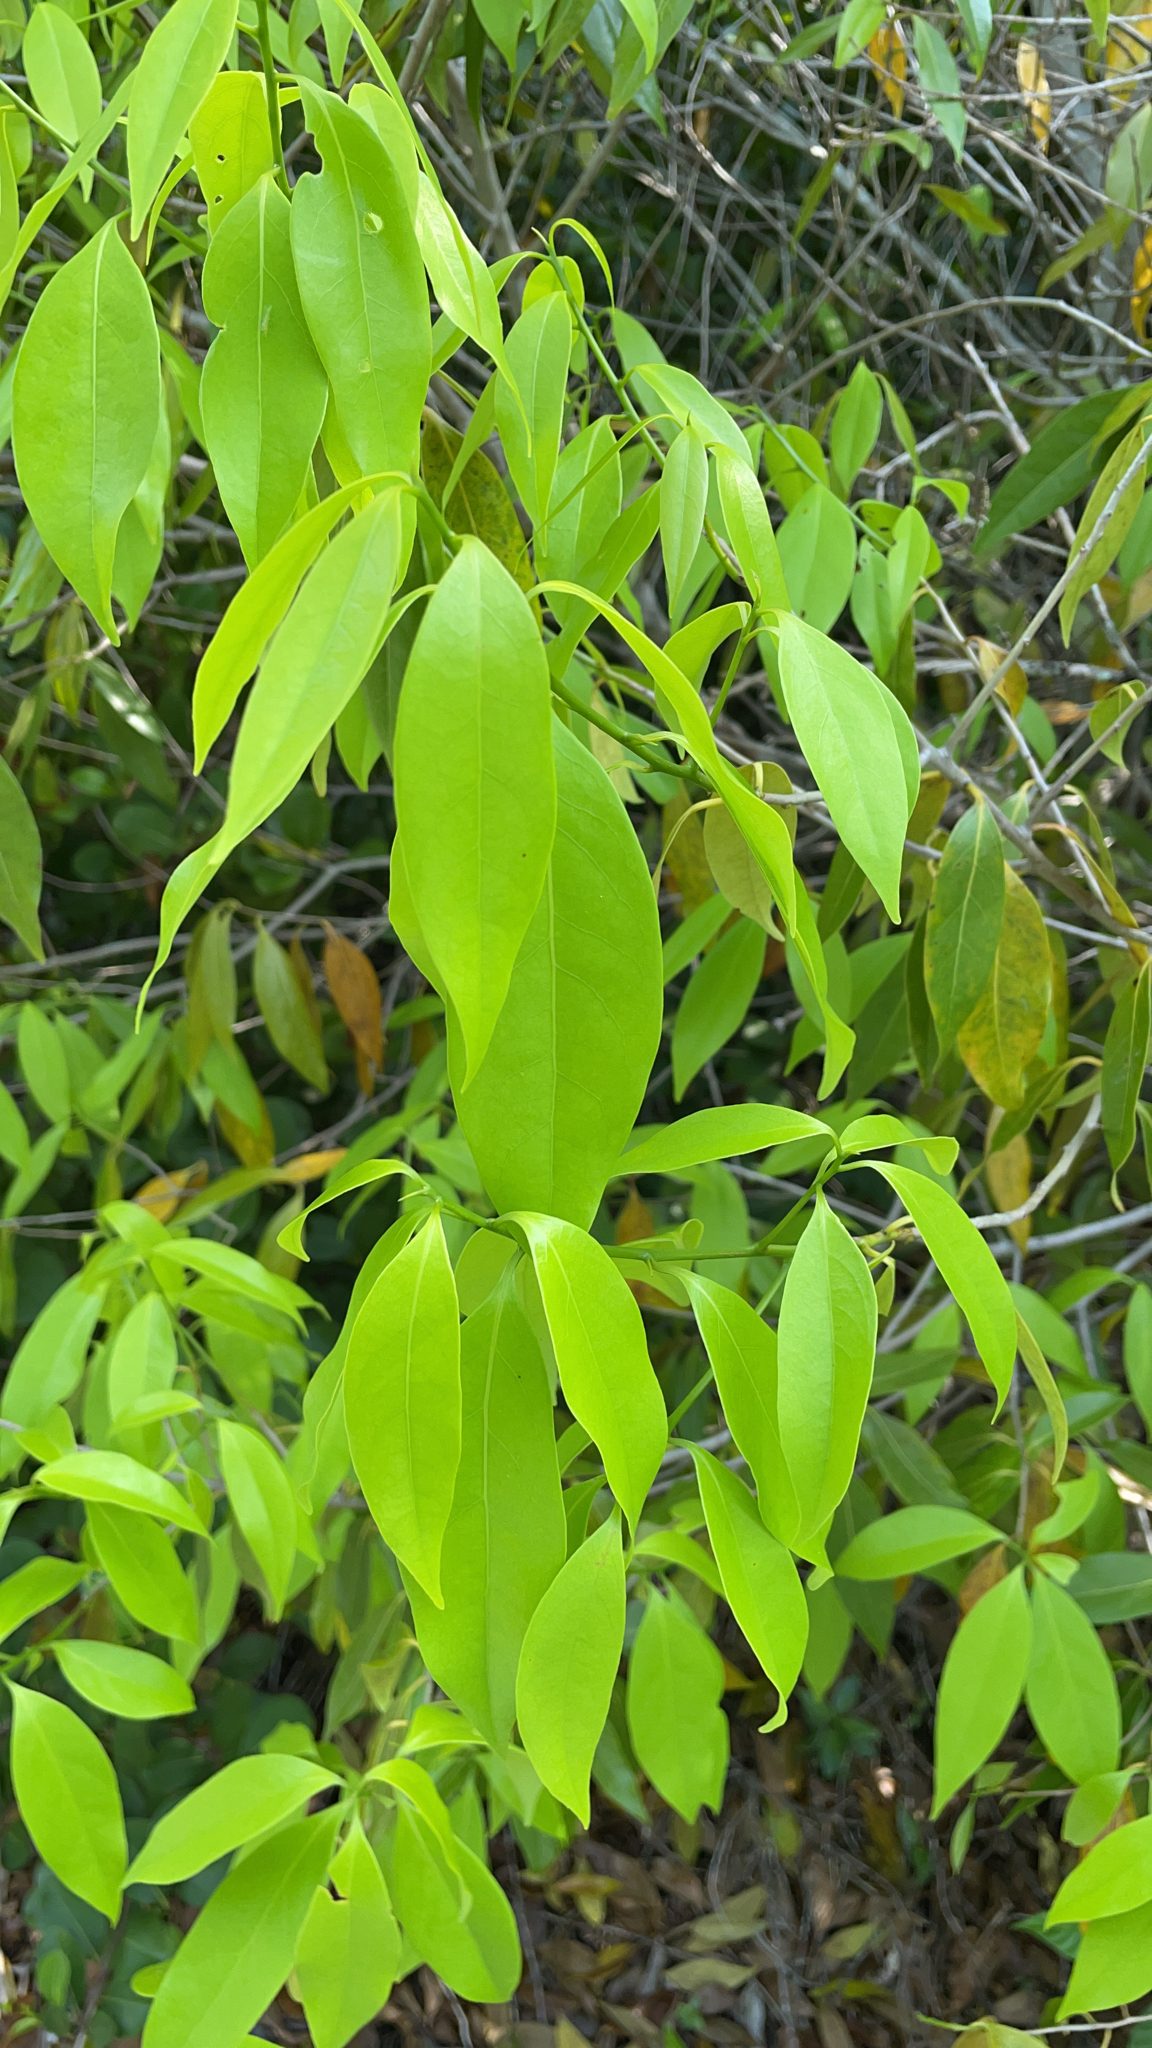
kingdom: Plantae
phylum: Tracheophyta
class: Magnoliopsida
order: Laurales
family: Lauraceae
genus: Damburneya
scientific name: Damburneya
